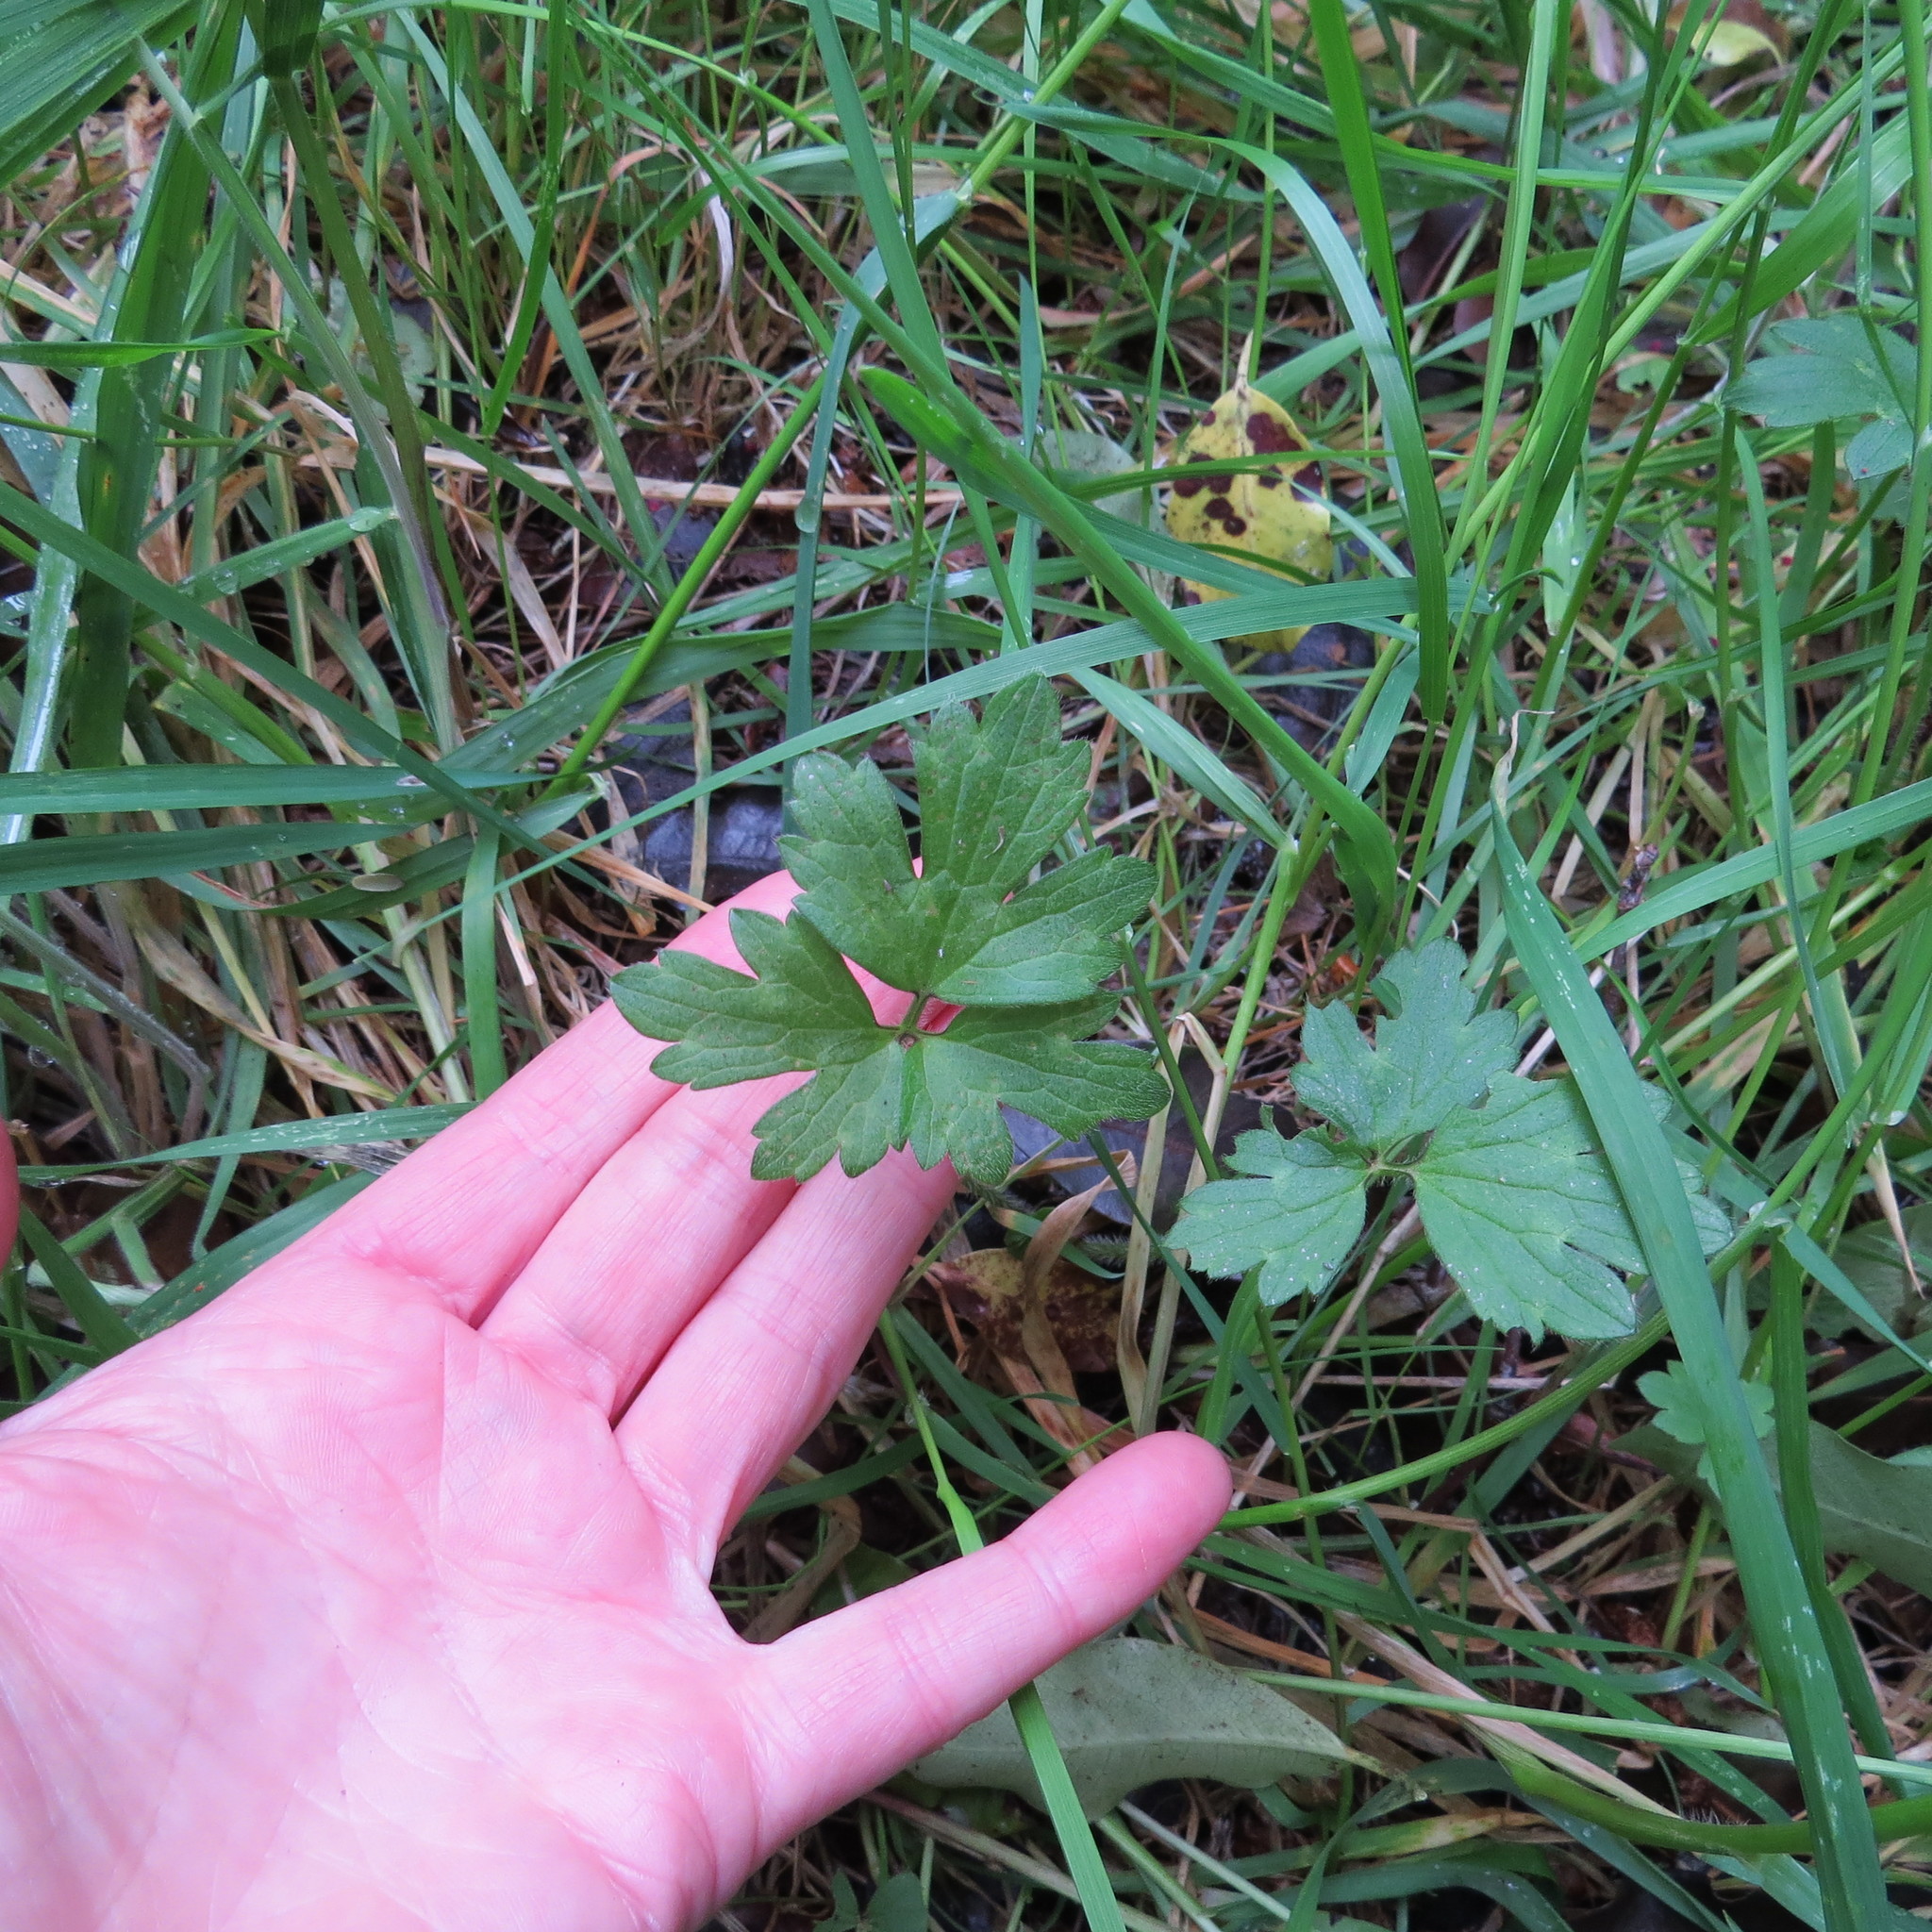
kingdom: Plantae
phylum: Tracheophyta
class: Magnoliopsida
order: Ranunculales
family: Ranunculaceae
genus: Ranunculus
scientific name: Ranunculus repens
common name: Creeping buttercup
